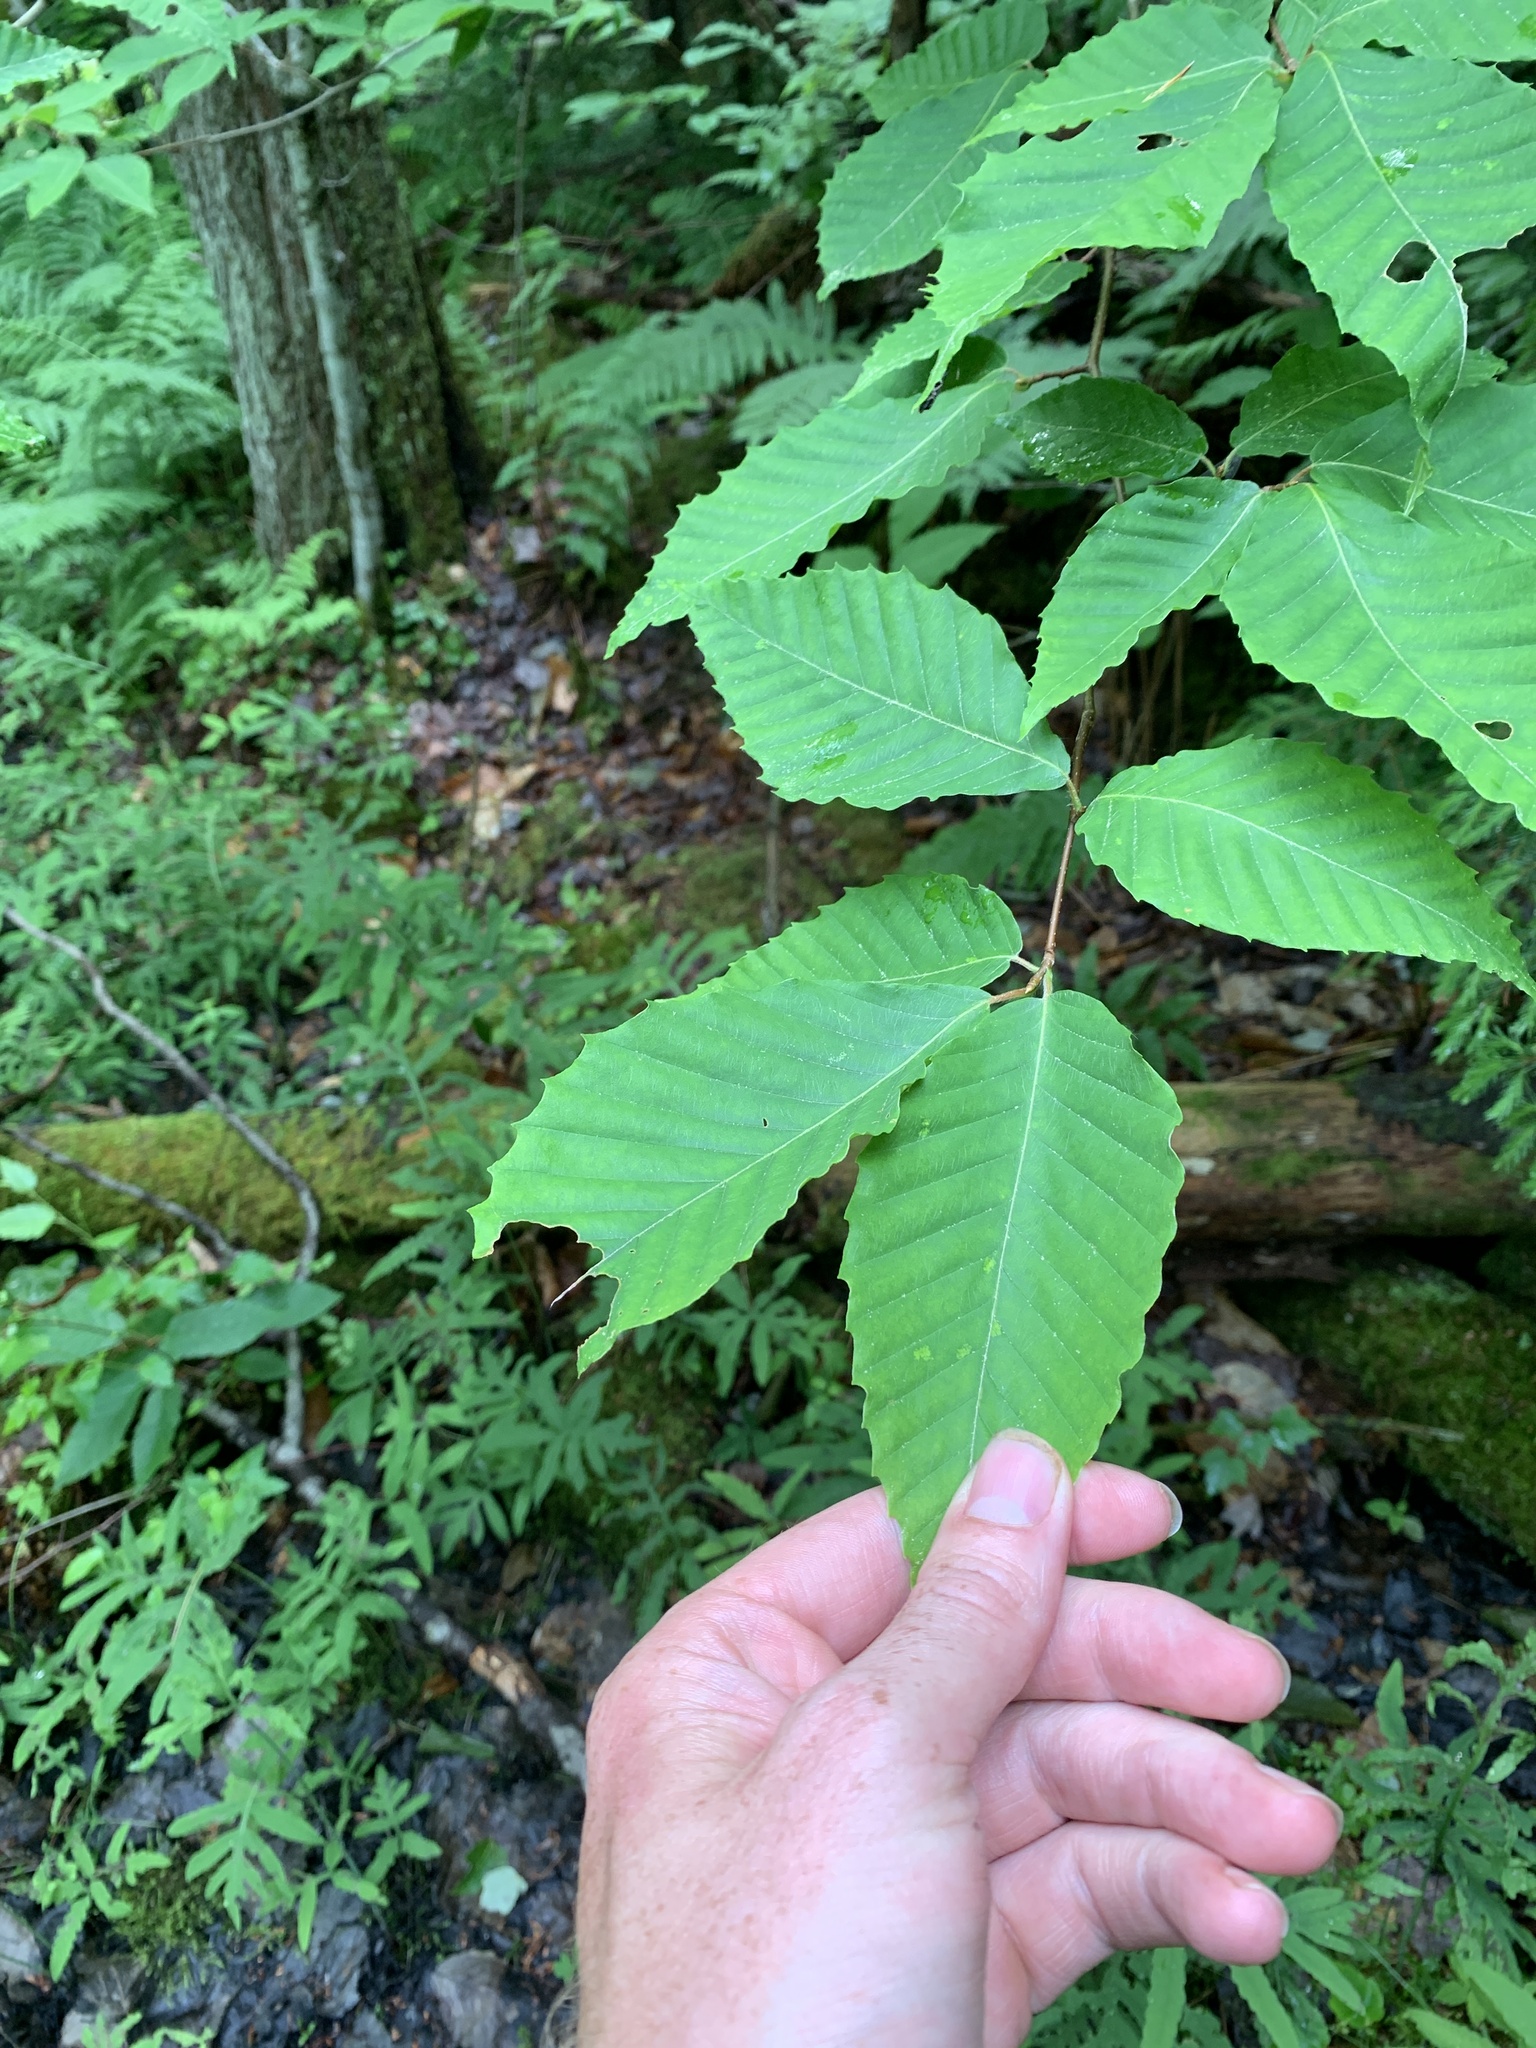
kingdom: Plantae
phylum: Tracheophyta
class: Magnoliopsida
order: Fagales
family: Fagaceae
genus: Fagus
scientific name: Fagus grandifolia
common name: American beech
